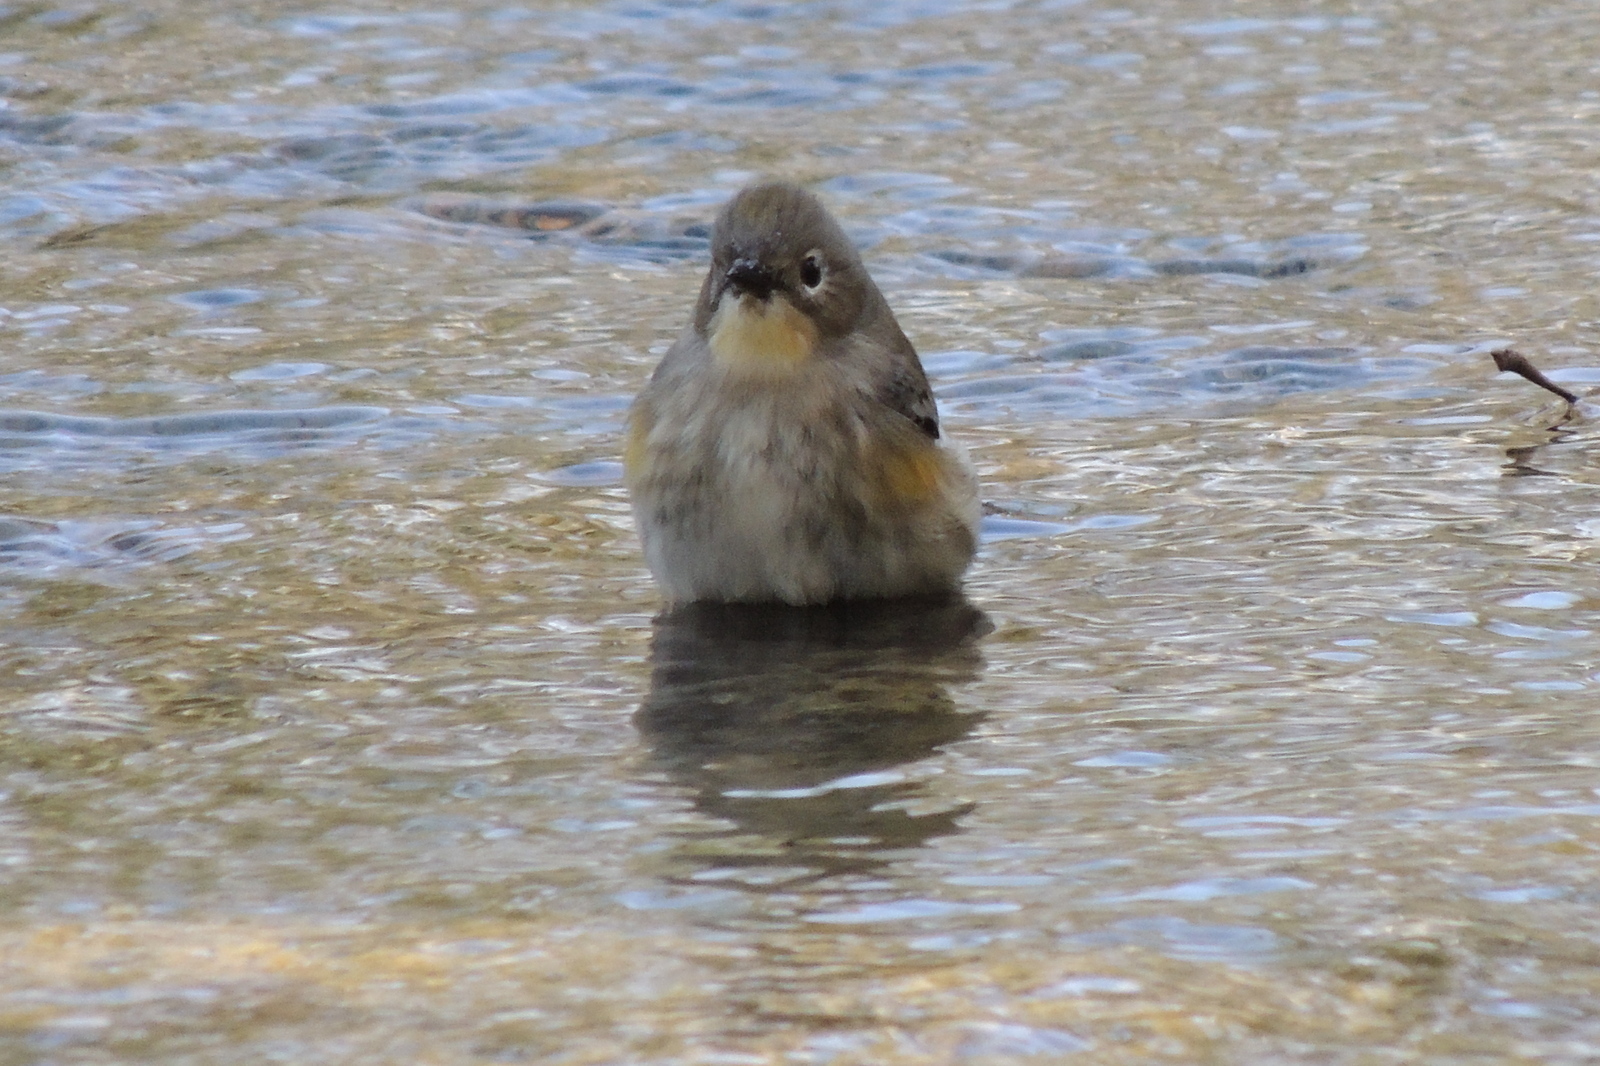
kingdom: Animalia
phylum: Chordata
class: Aves
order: Passeriformes
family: Parulidae
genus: Setophaga
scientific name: Setophaga coronata
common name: Myrtle warbler
